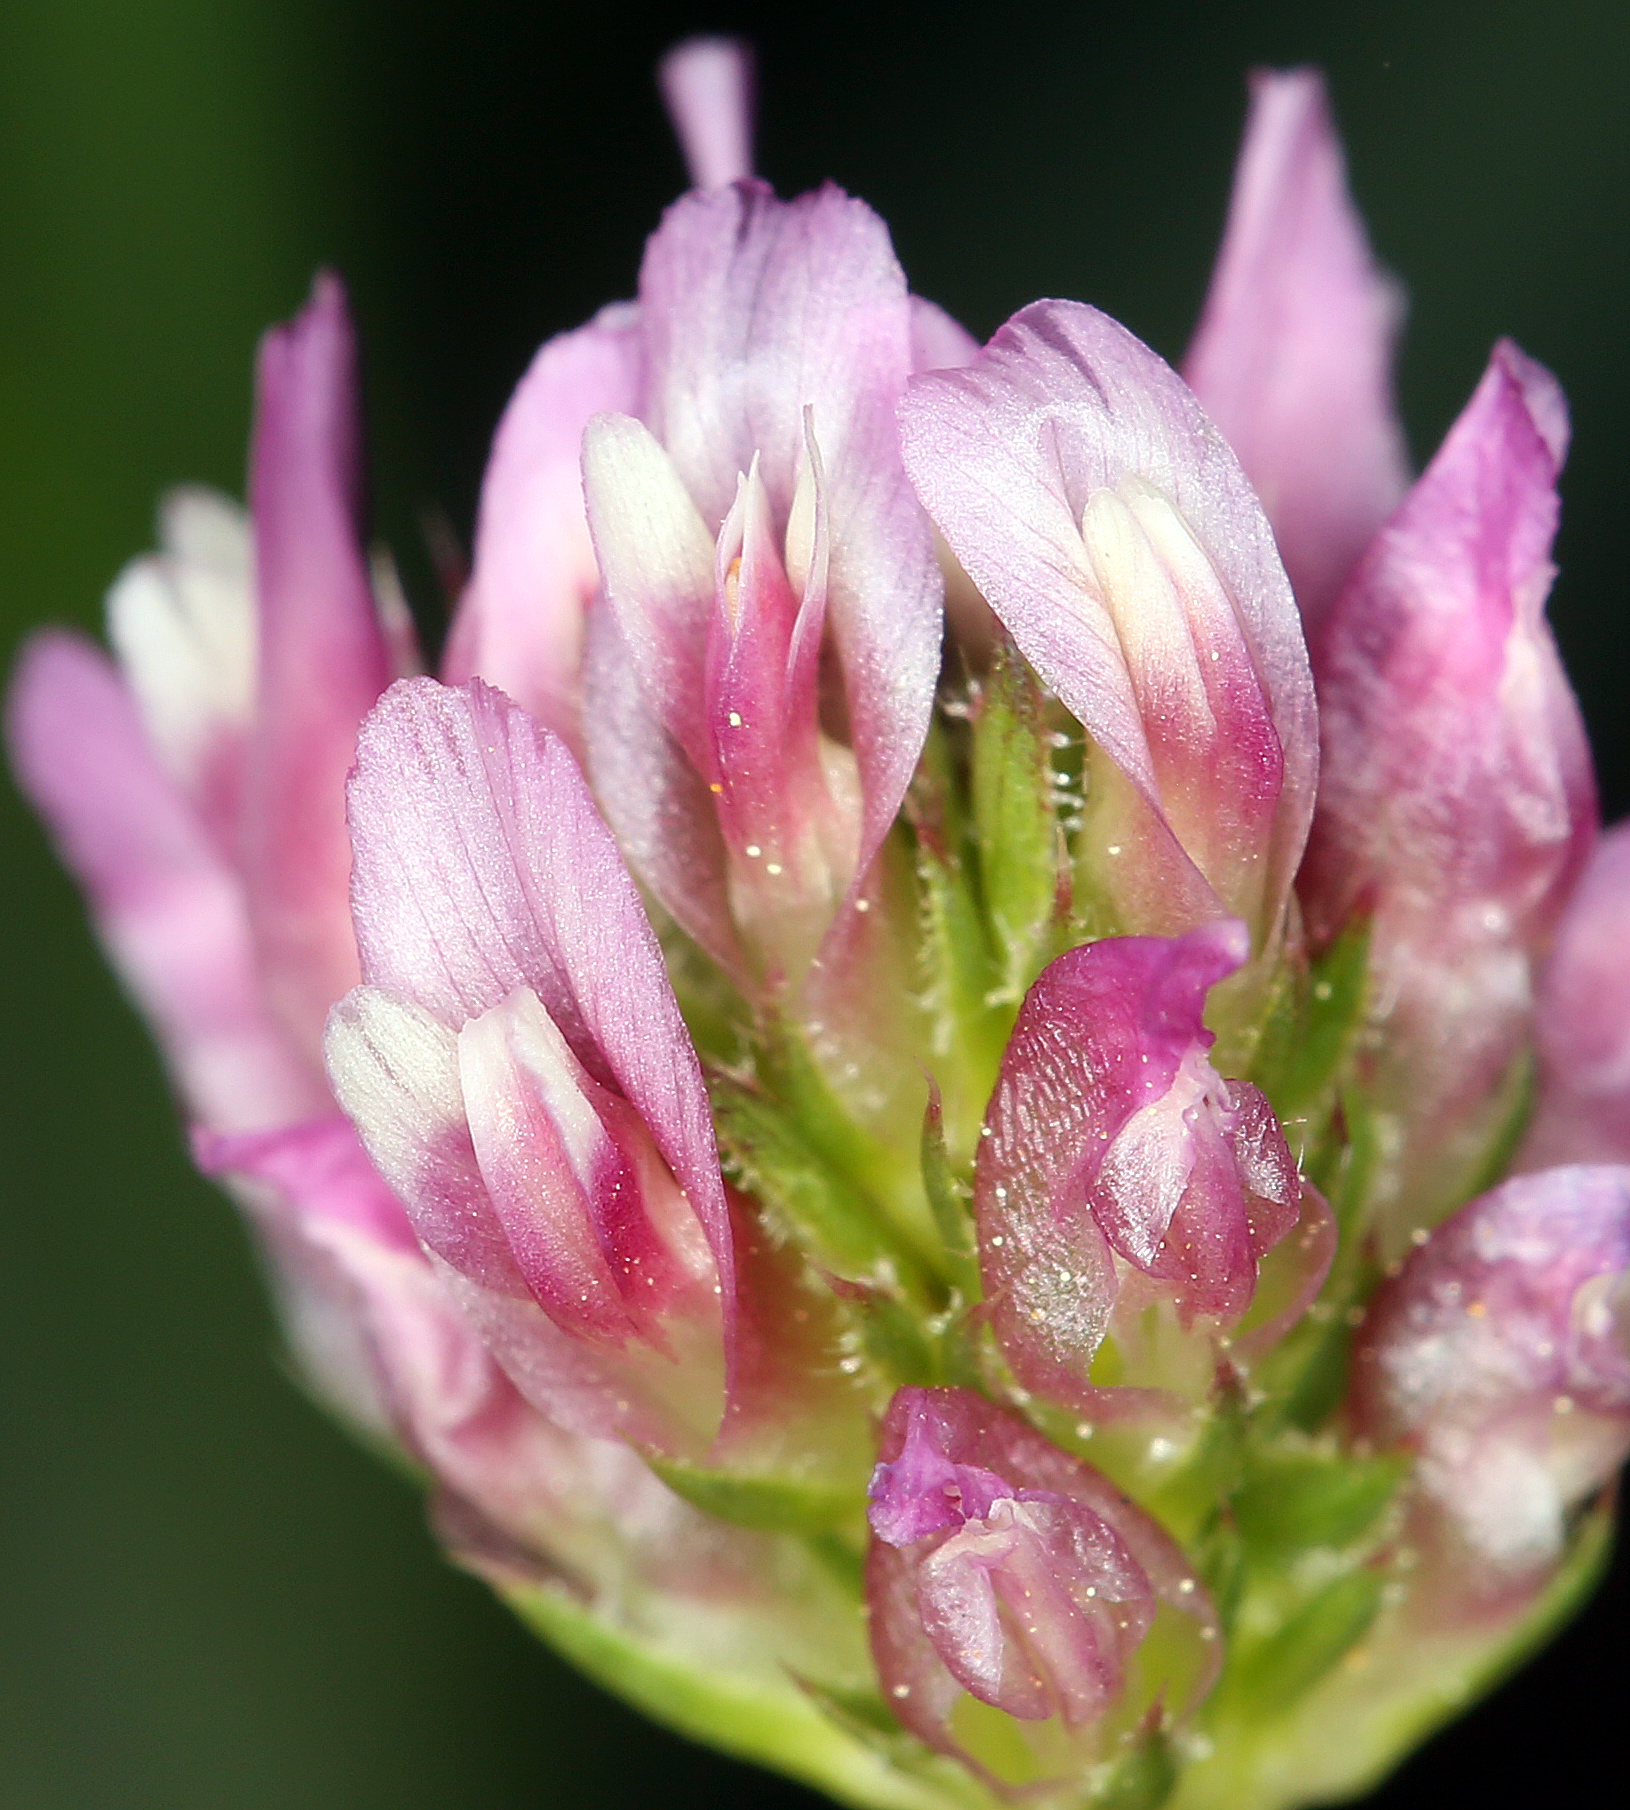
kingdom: Plantae
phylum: Tracheophyta
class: Magnoliopsida
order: Fabales
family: Fabaceae
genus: Trifolium
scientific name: Trifolium ciliolatum
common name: Foothill clover
